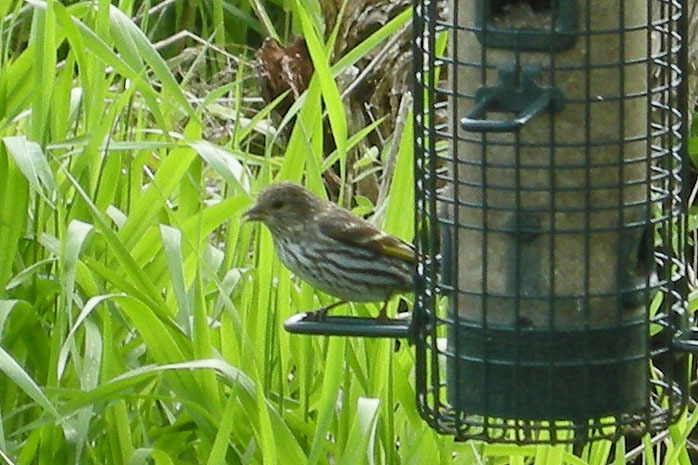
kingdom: Animalia
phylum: Chordata
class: Aves
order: Passeriformes
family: Fringillidae
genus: Spinus
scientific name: Spinus pinus
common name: Pine siskin
